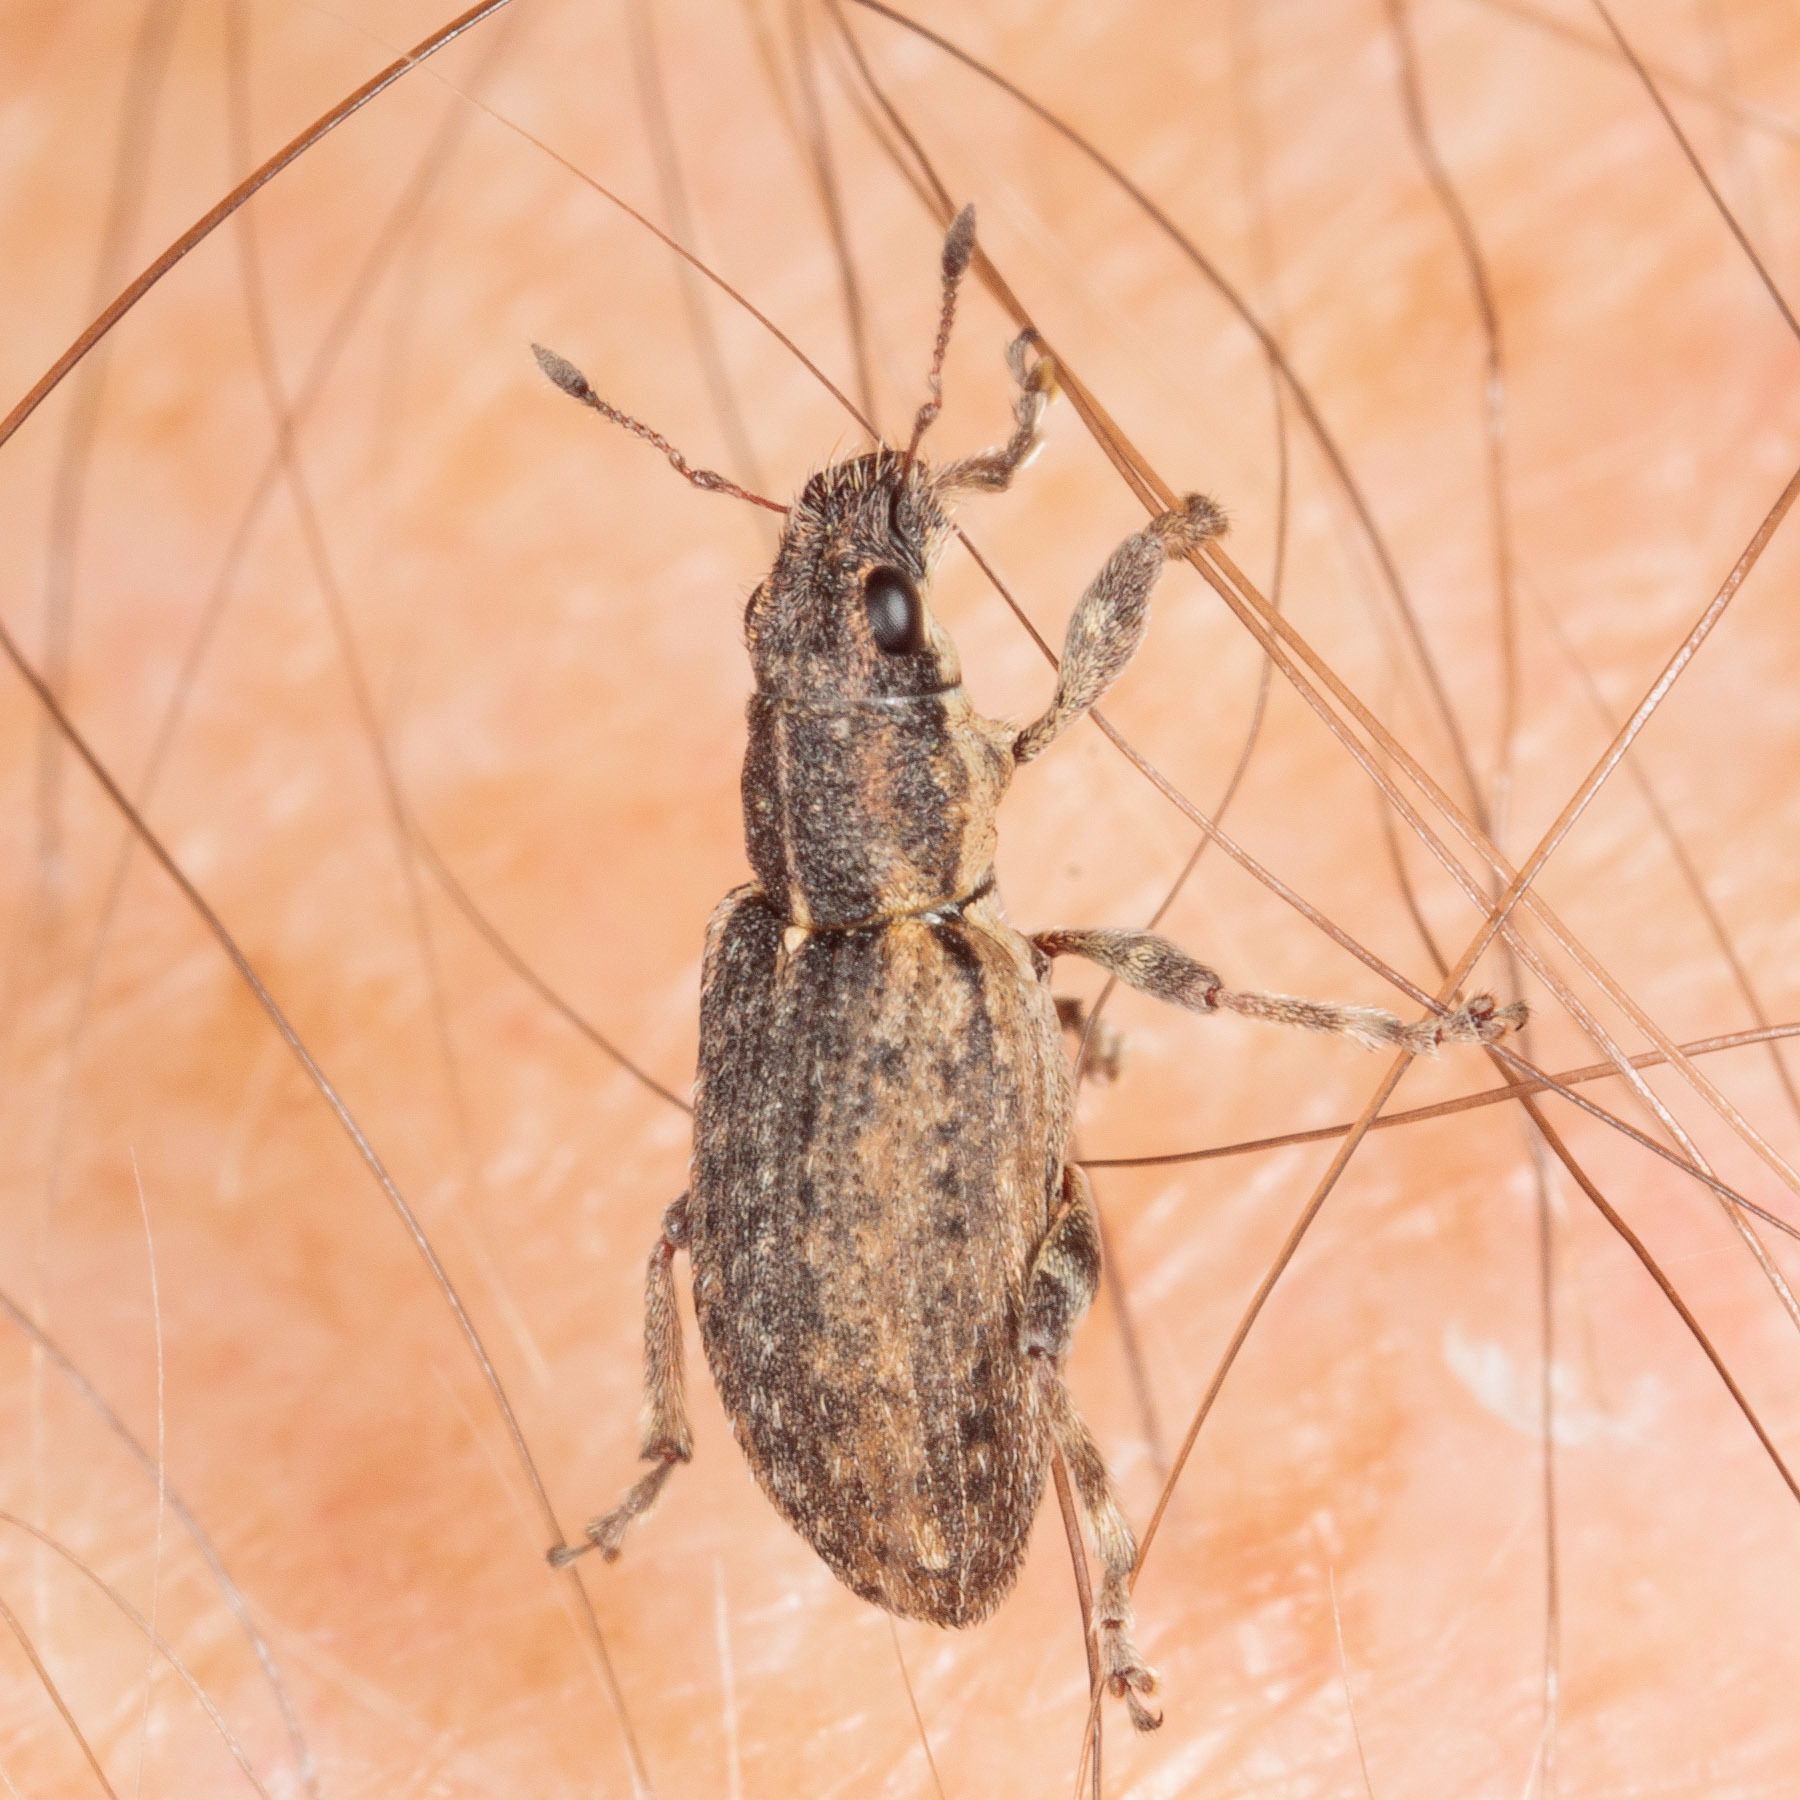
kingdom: Animalia
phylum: Arthropoda
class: Insecta
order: Coleoptera
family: Curculionidae
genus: Sitones
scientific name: Sitones californius
